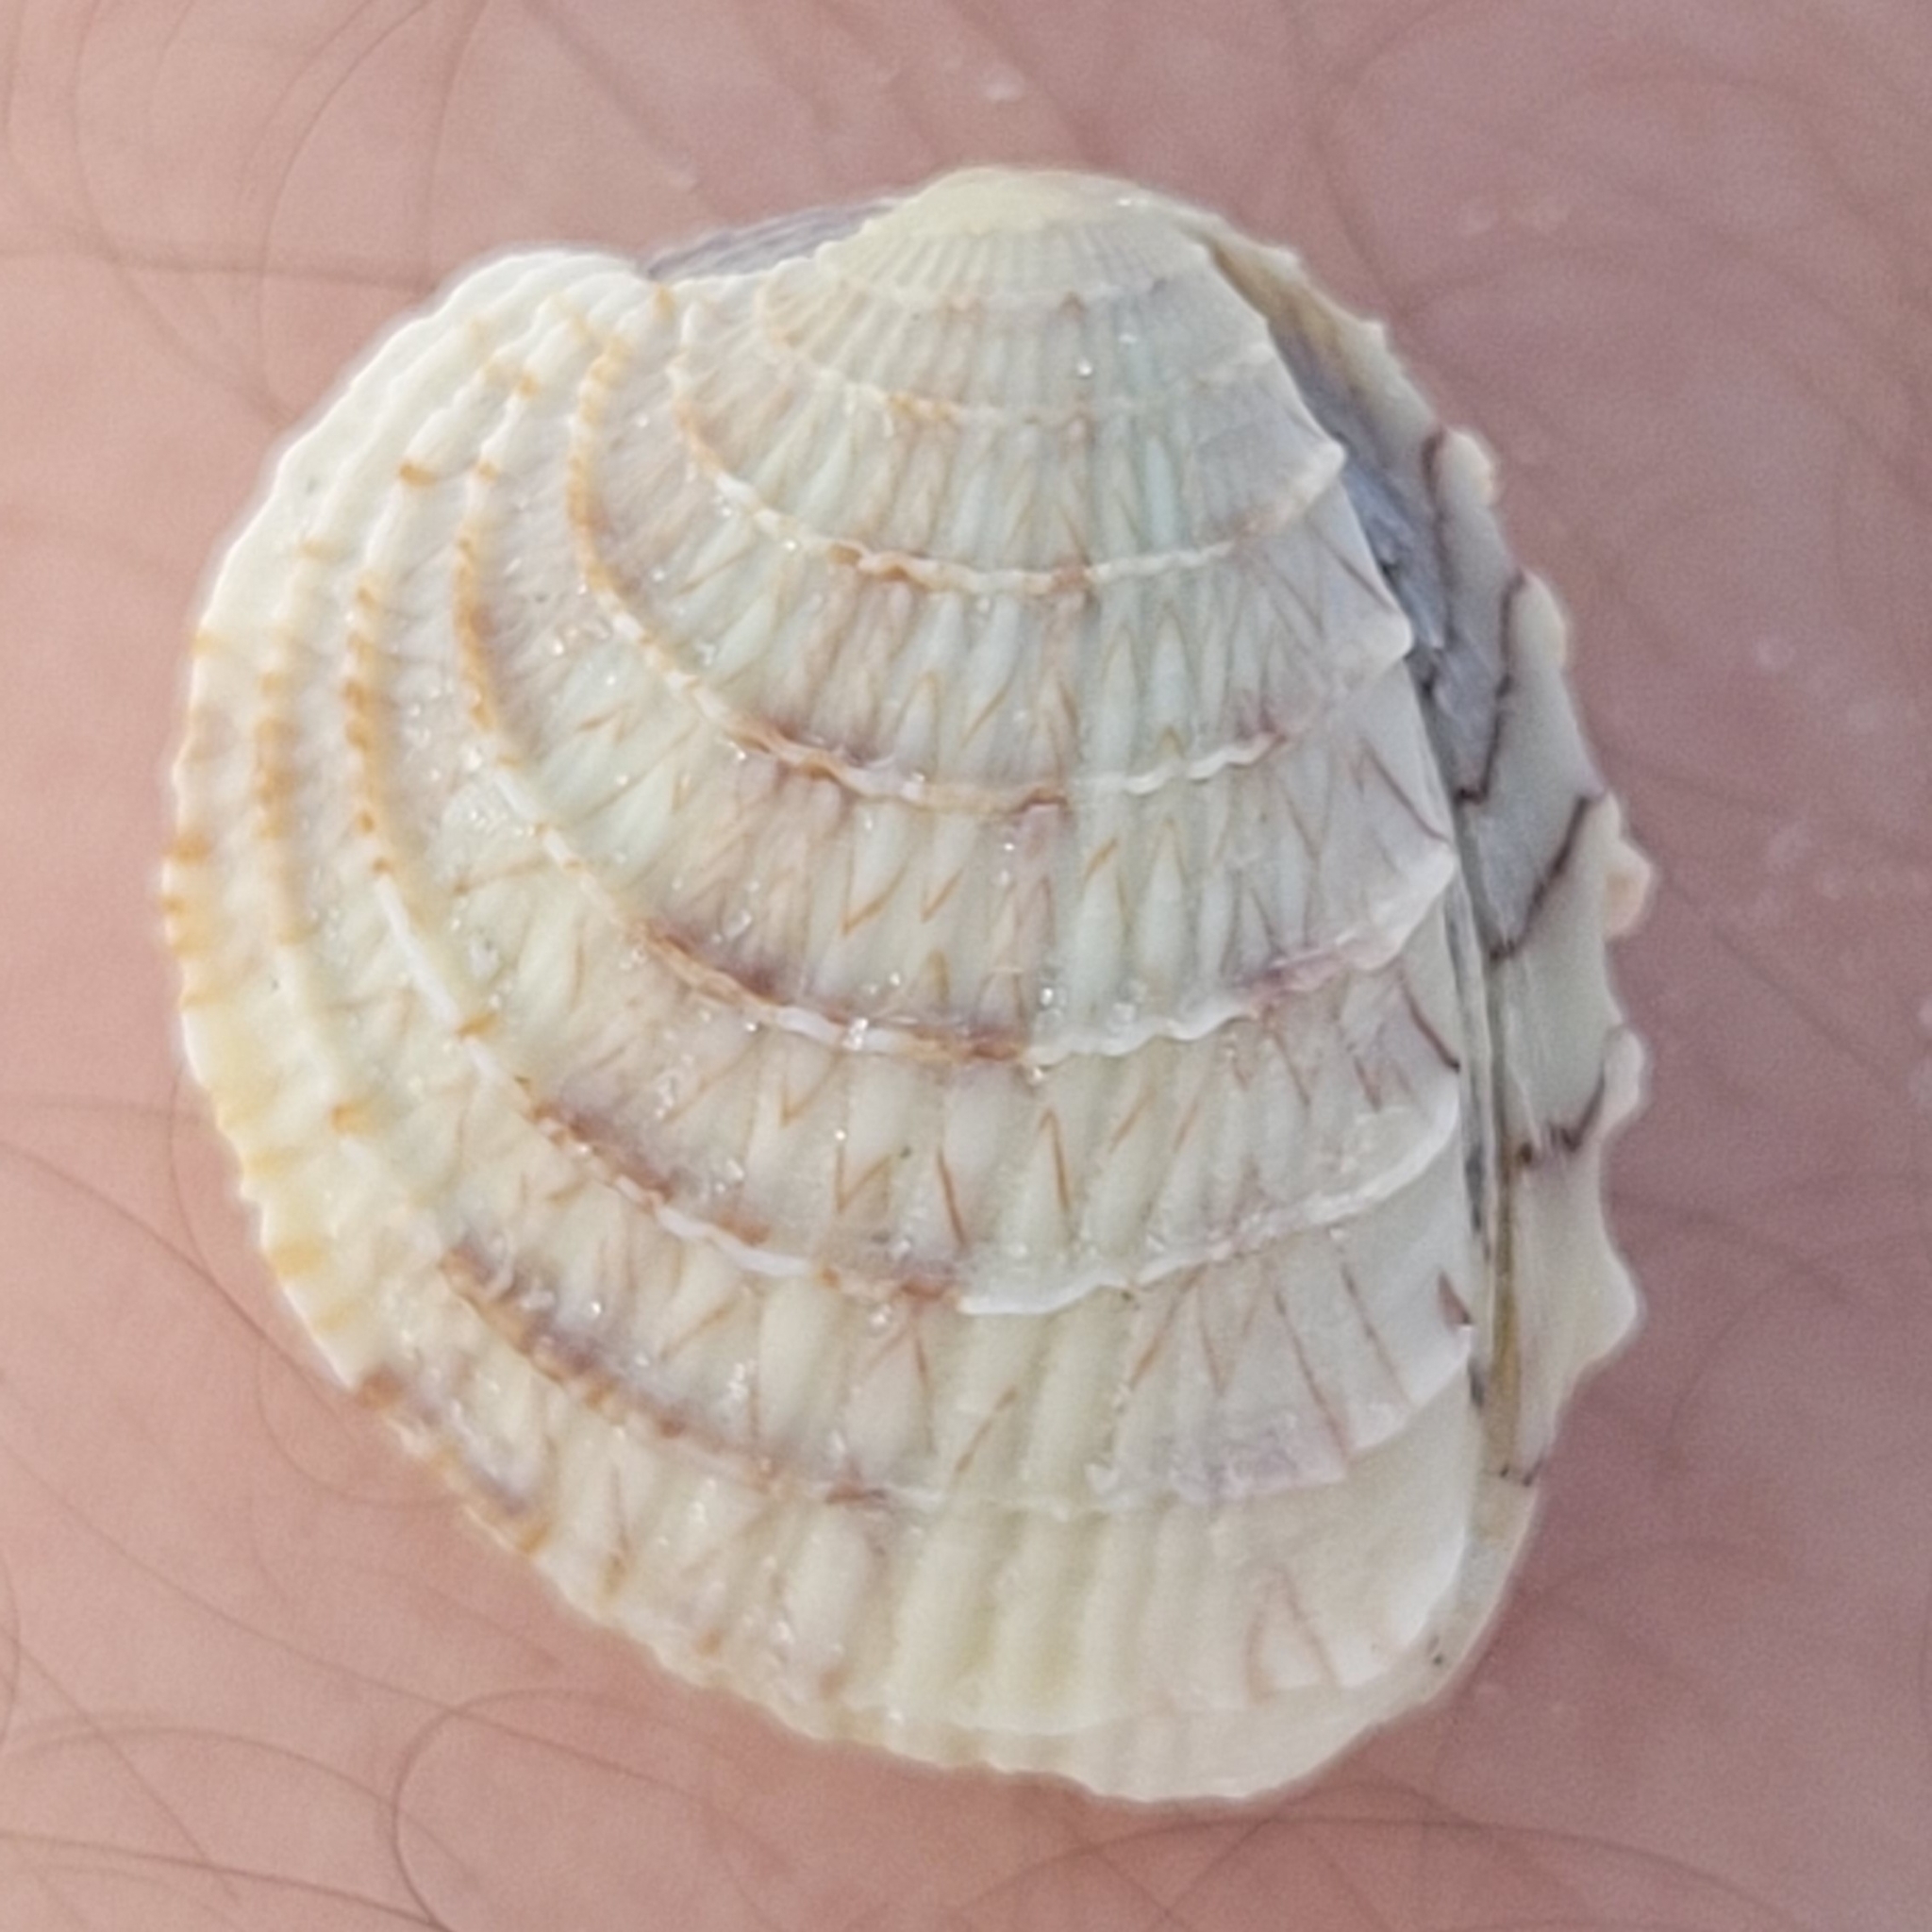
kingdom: Animalia
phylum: Mollusca
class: Bivalvia
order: Venerida
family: Veneridae
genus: Chione
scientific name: Chione elevata
